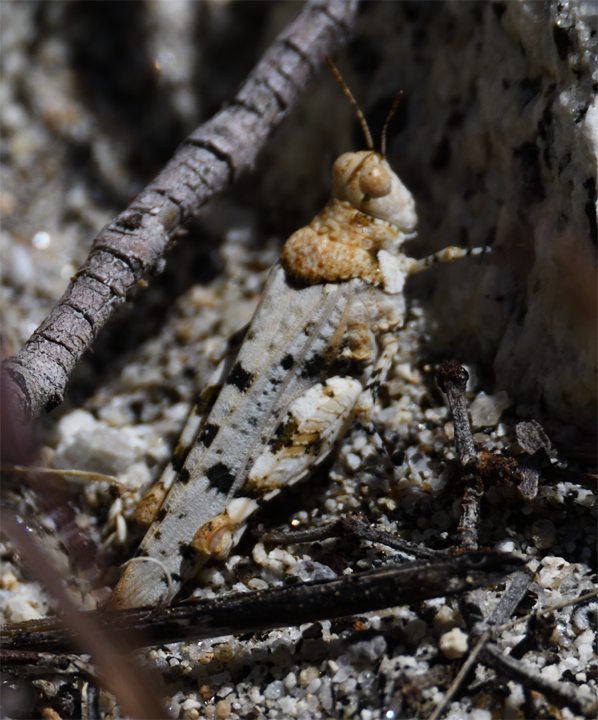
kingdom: Animalia
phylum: Arthropoda
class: Insecta
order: Orthoptera
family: Acrididae
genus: Cibolacris
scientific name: Cibolacris parviceps
